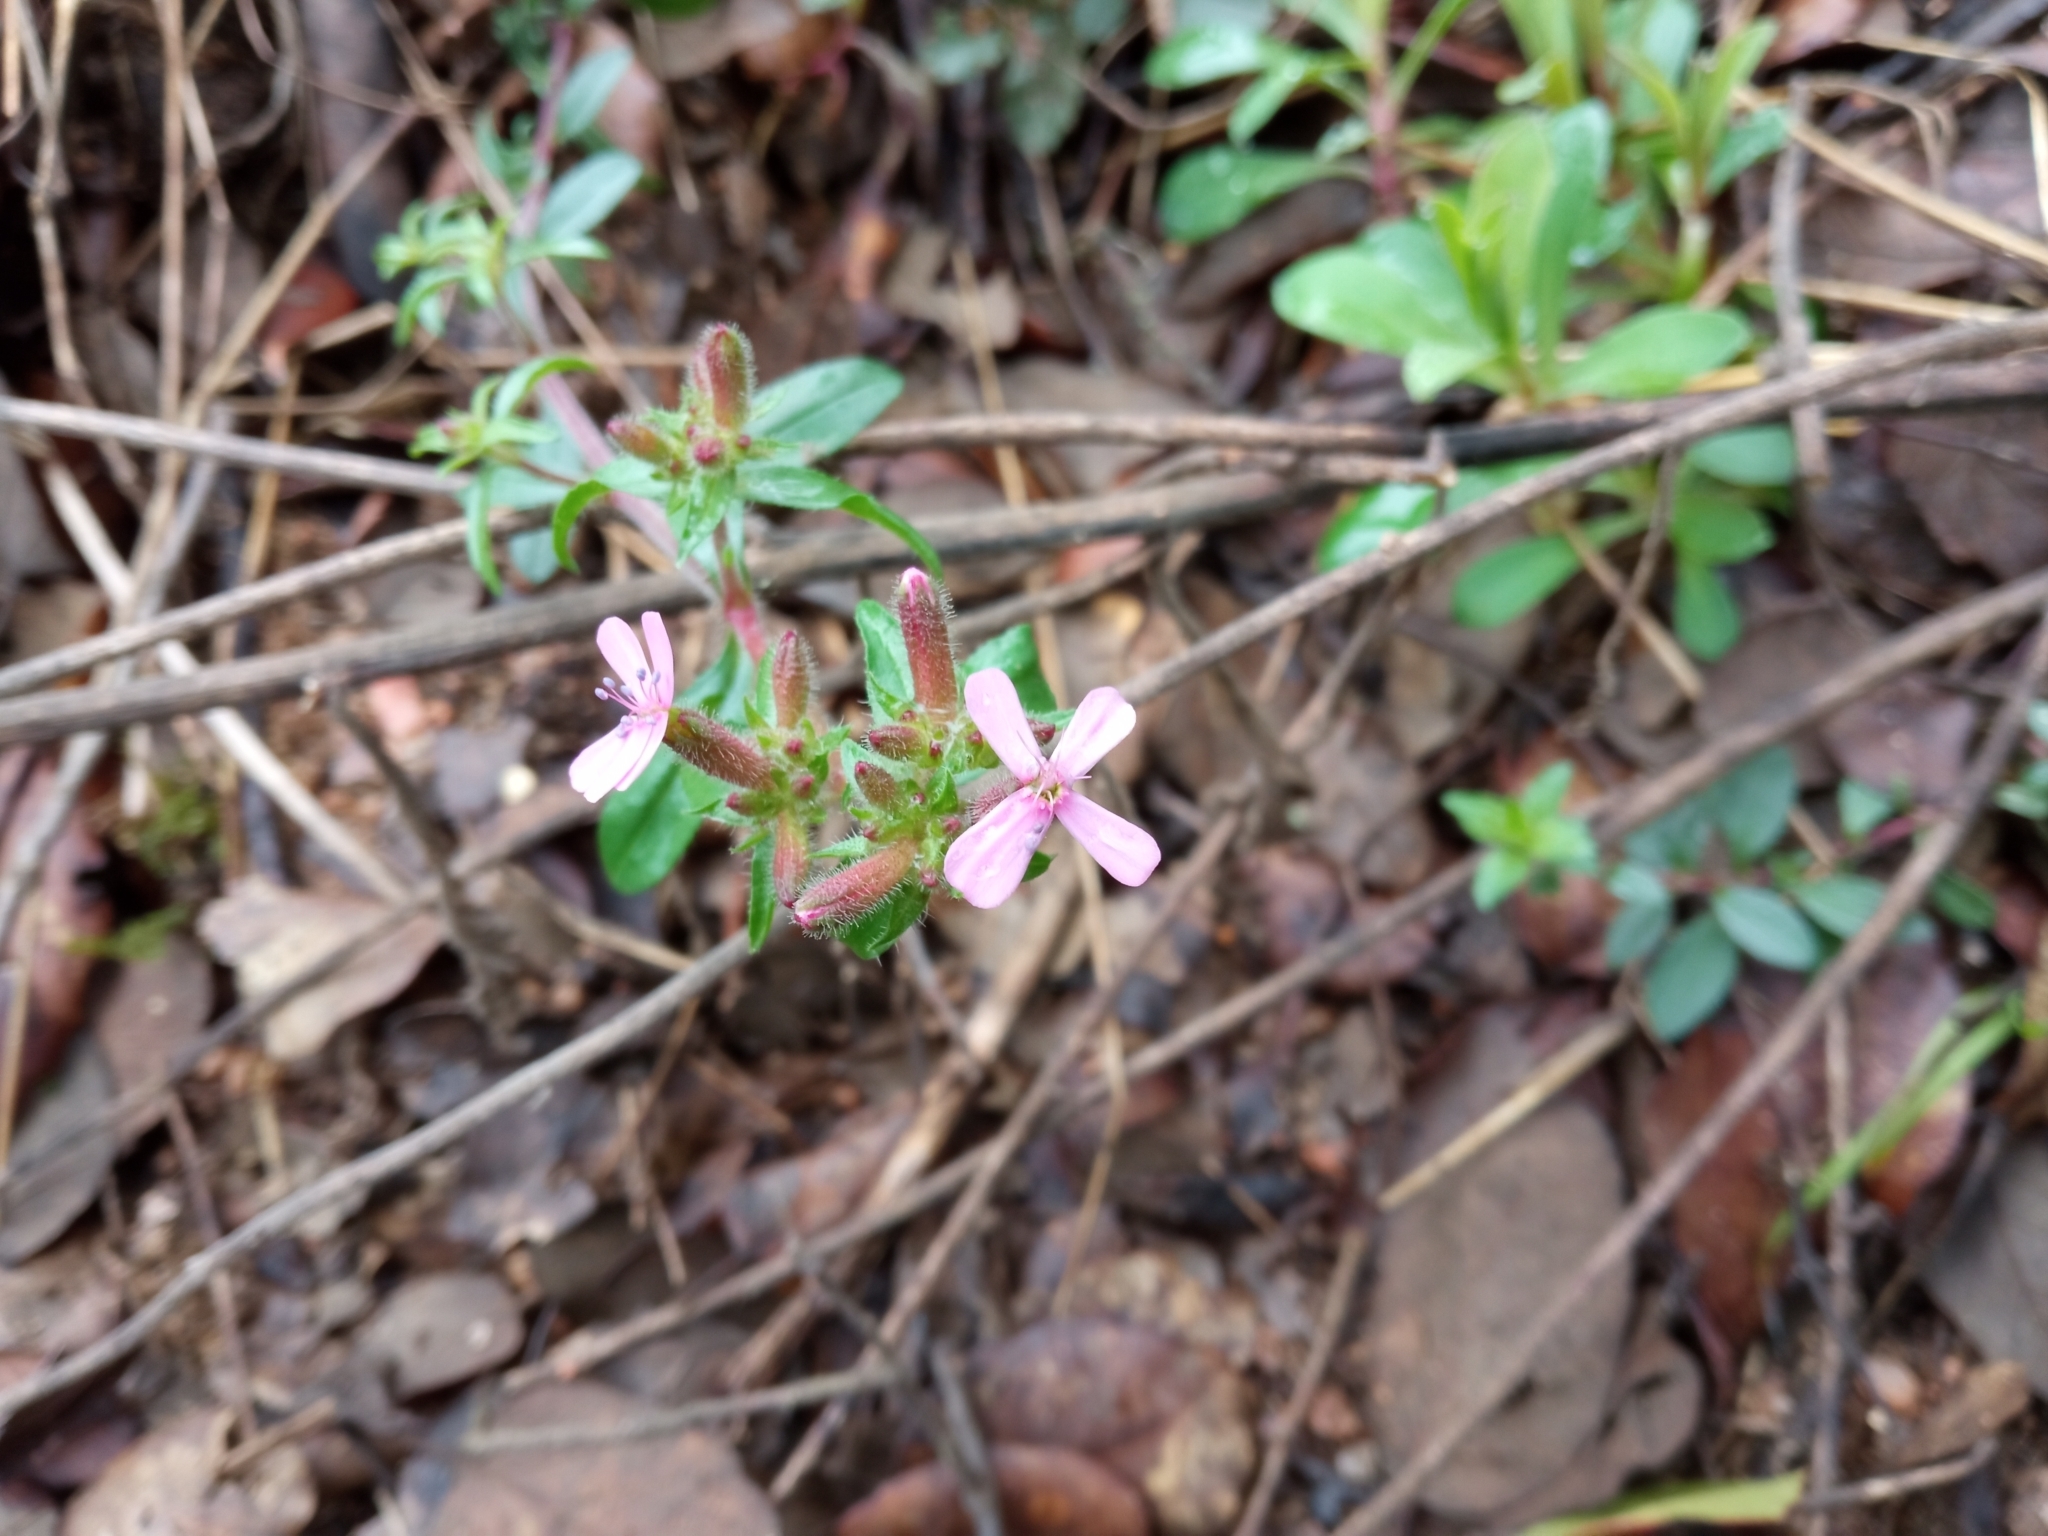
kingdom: Plantae
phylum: Tracheophyta
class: Magnoliopsida
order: Caryophyllales
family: Caryophyllaceae
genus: Saponaria
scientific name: Saponaria ocymoides
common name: Rock soapwort
